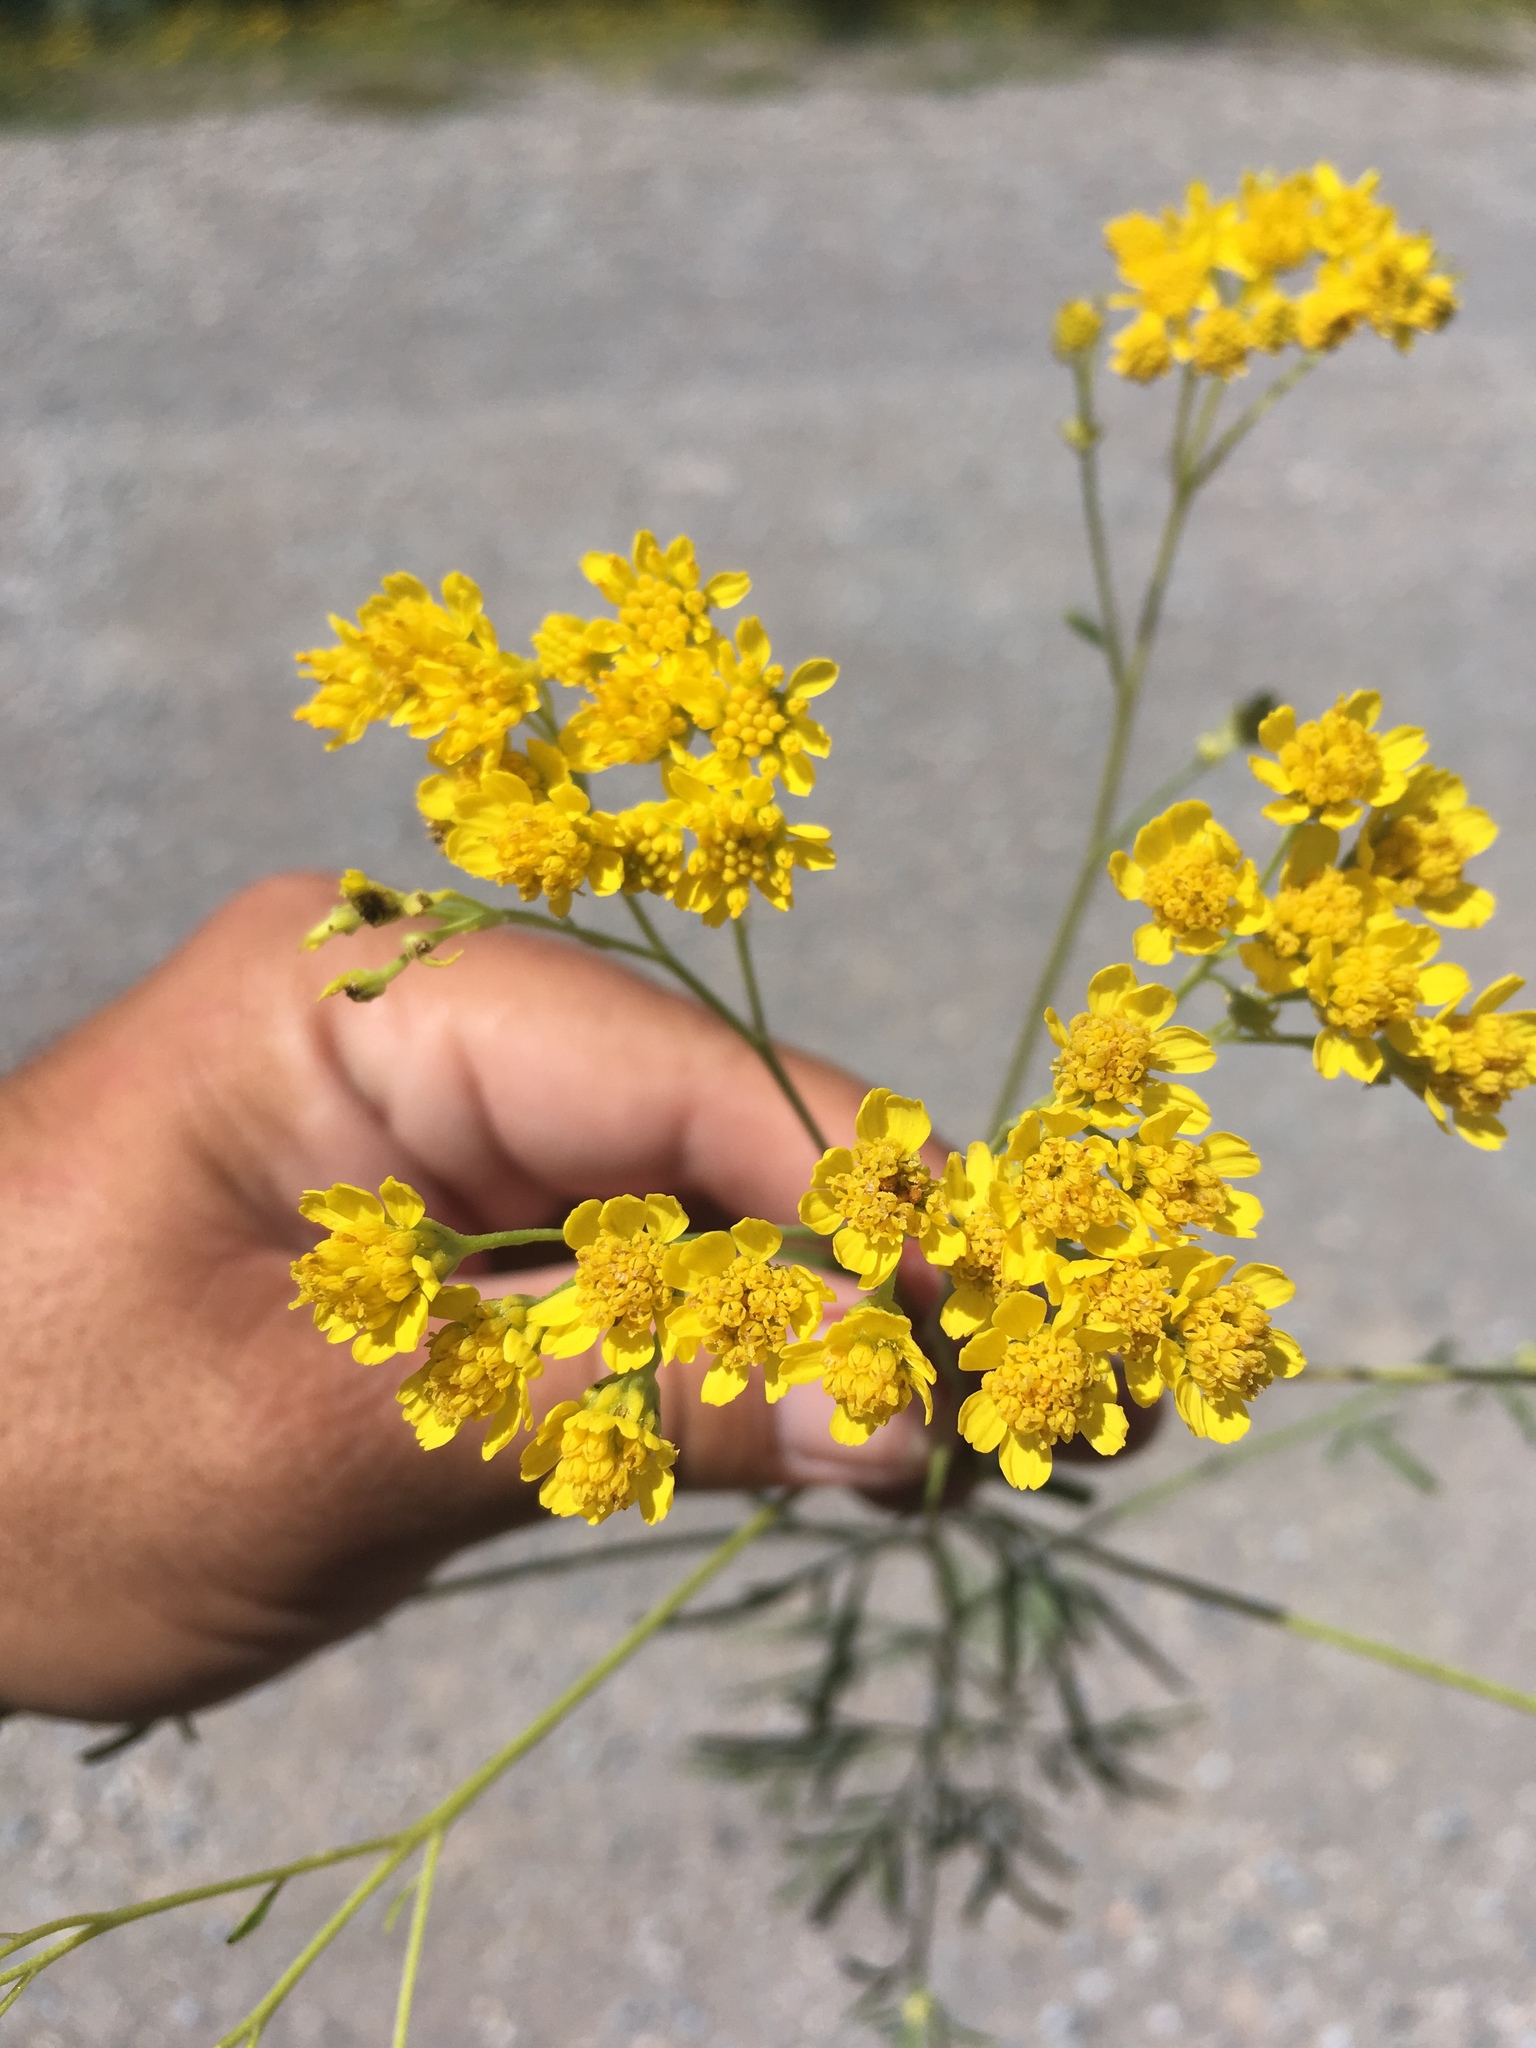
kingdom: Plantae
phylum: Tracheophyta
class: Magnoliopsida
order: Asterales
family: Asteraceae
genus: Hymenothrix
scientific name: Hymenothrix wislizeni
